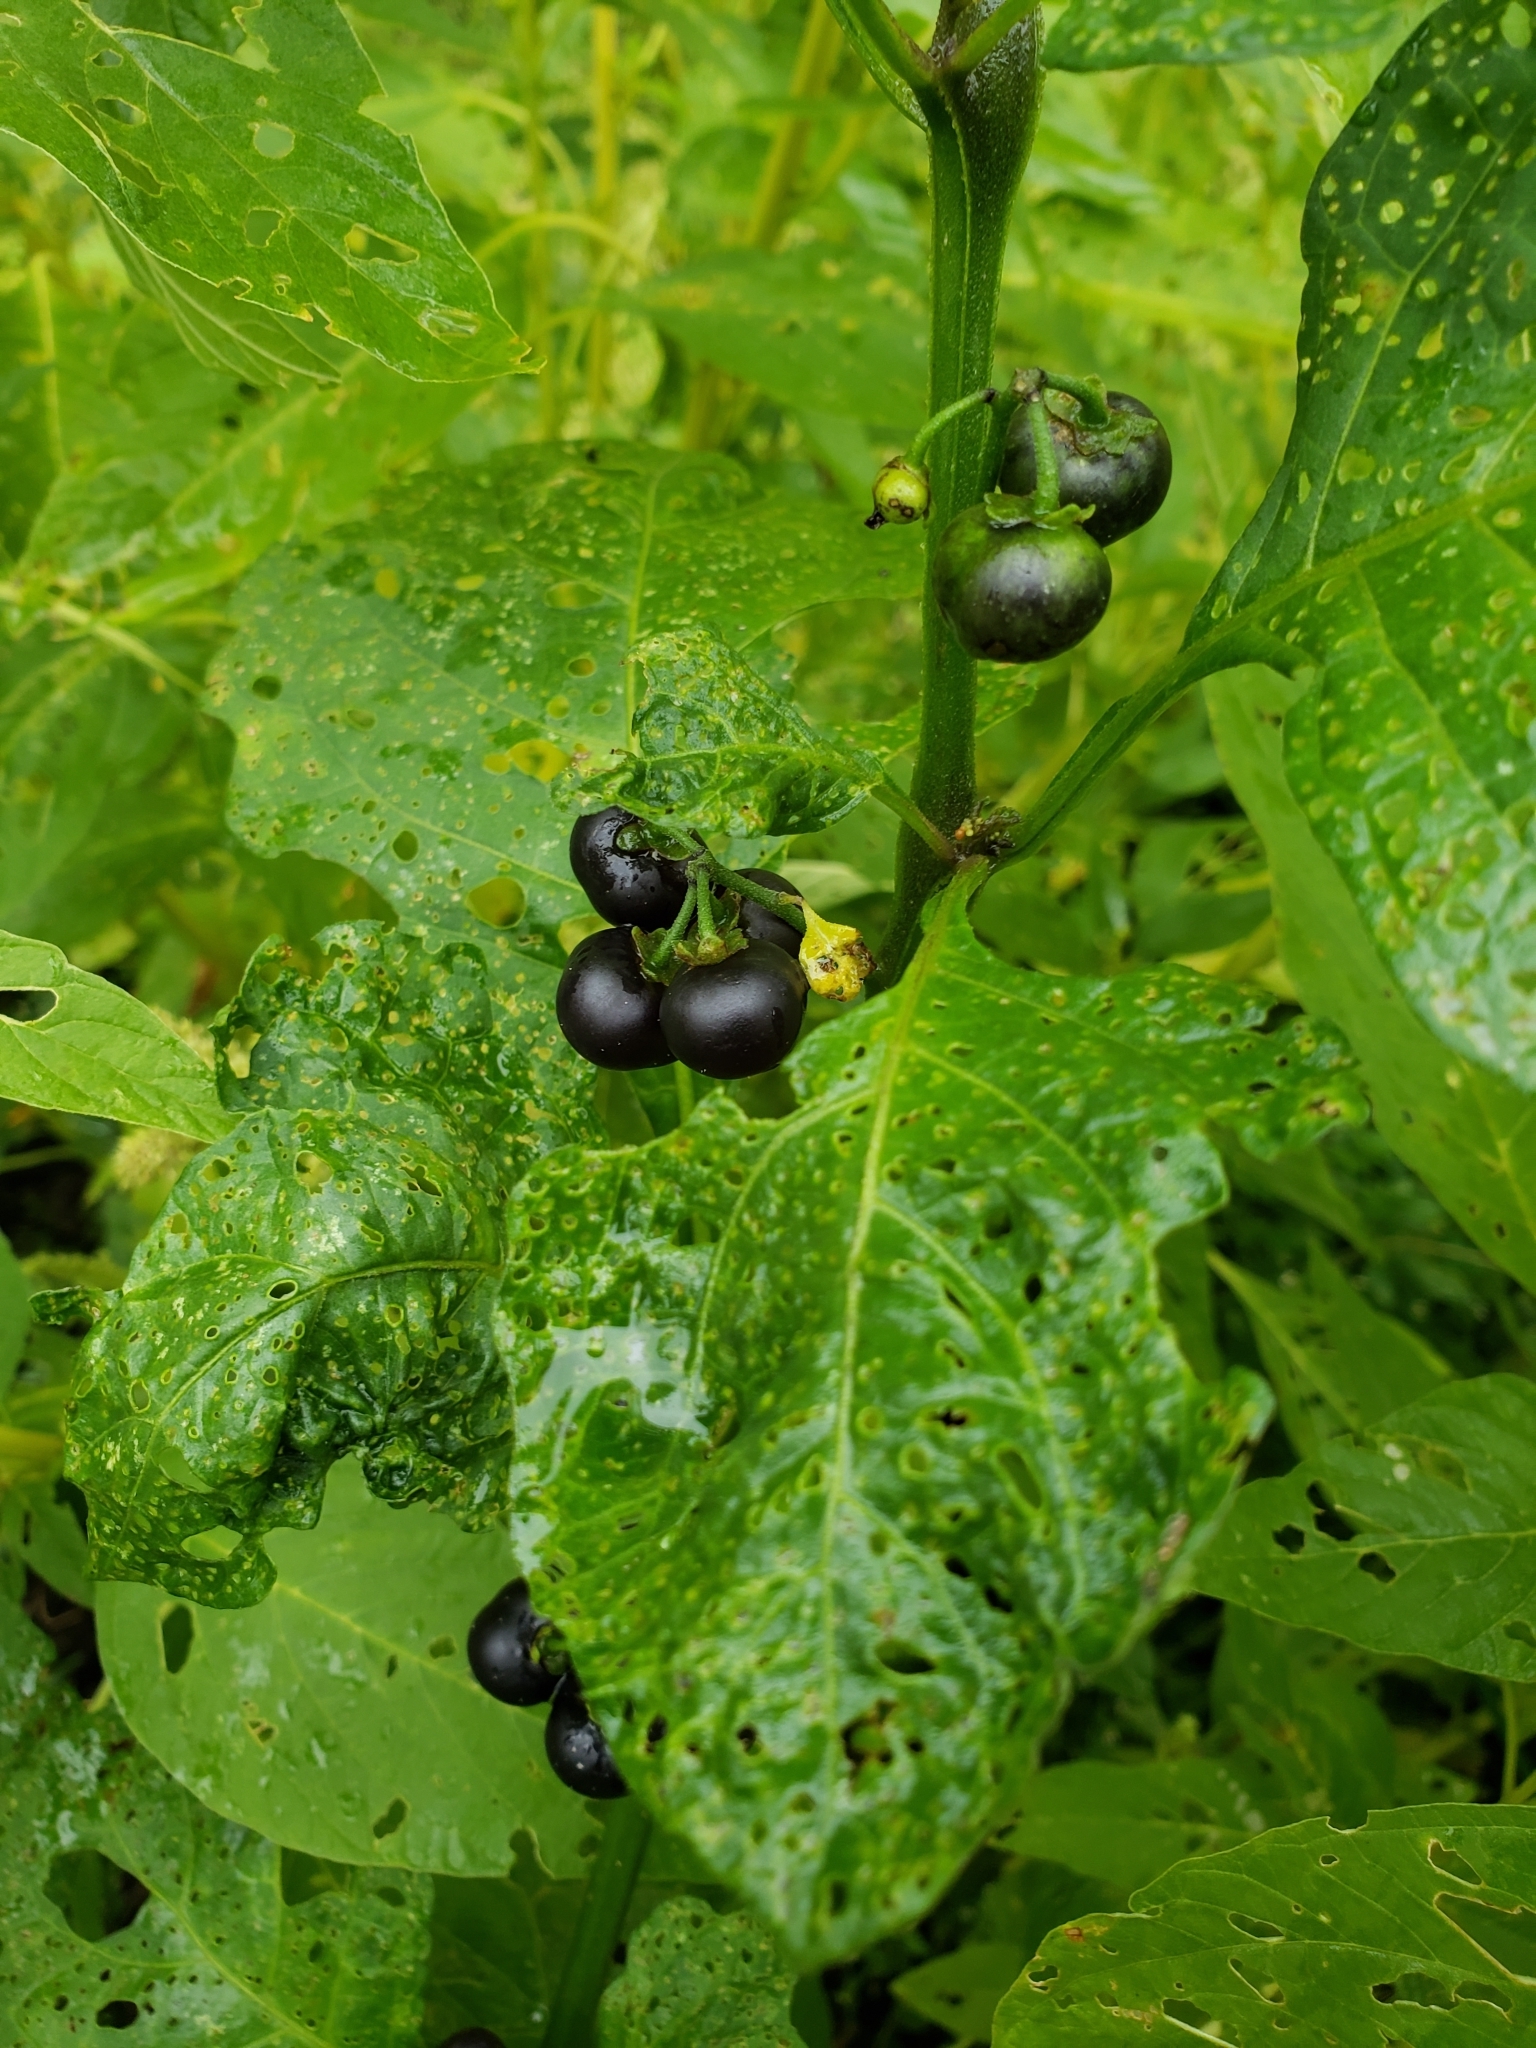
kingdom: Plantae
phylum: Tracheophyta
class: Magnoliopsida
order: Solanales
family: Solanaceae
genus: Solanum
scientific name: Solanum emulans
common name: Eastern black nightshade
